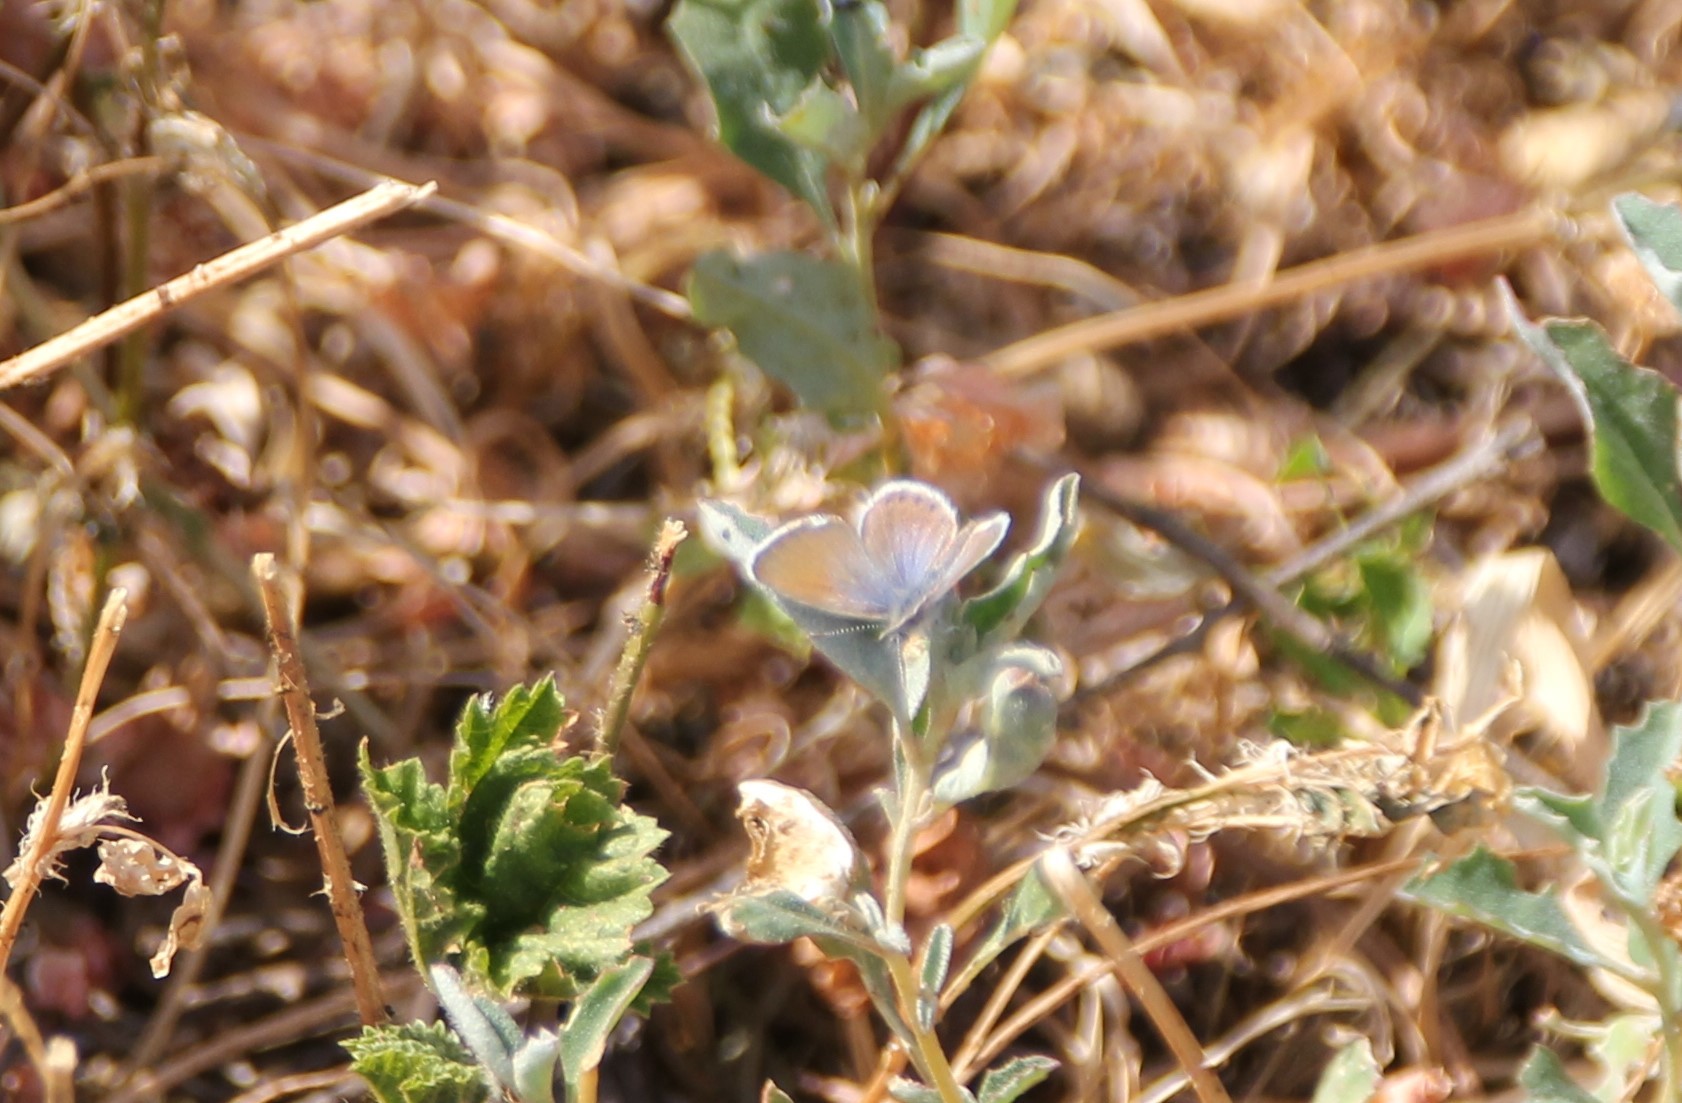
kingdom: Animalia
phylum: Arthropoda
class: Insecta
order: Lepidoptera
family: Lycaenidae
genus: Brephidium
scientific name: Brephidium exilis
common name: Pygmy blue
